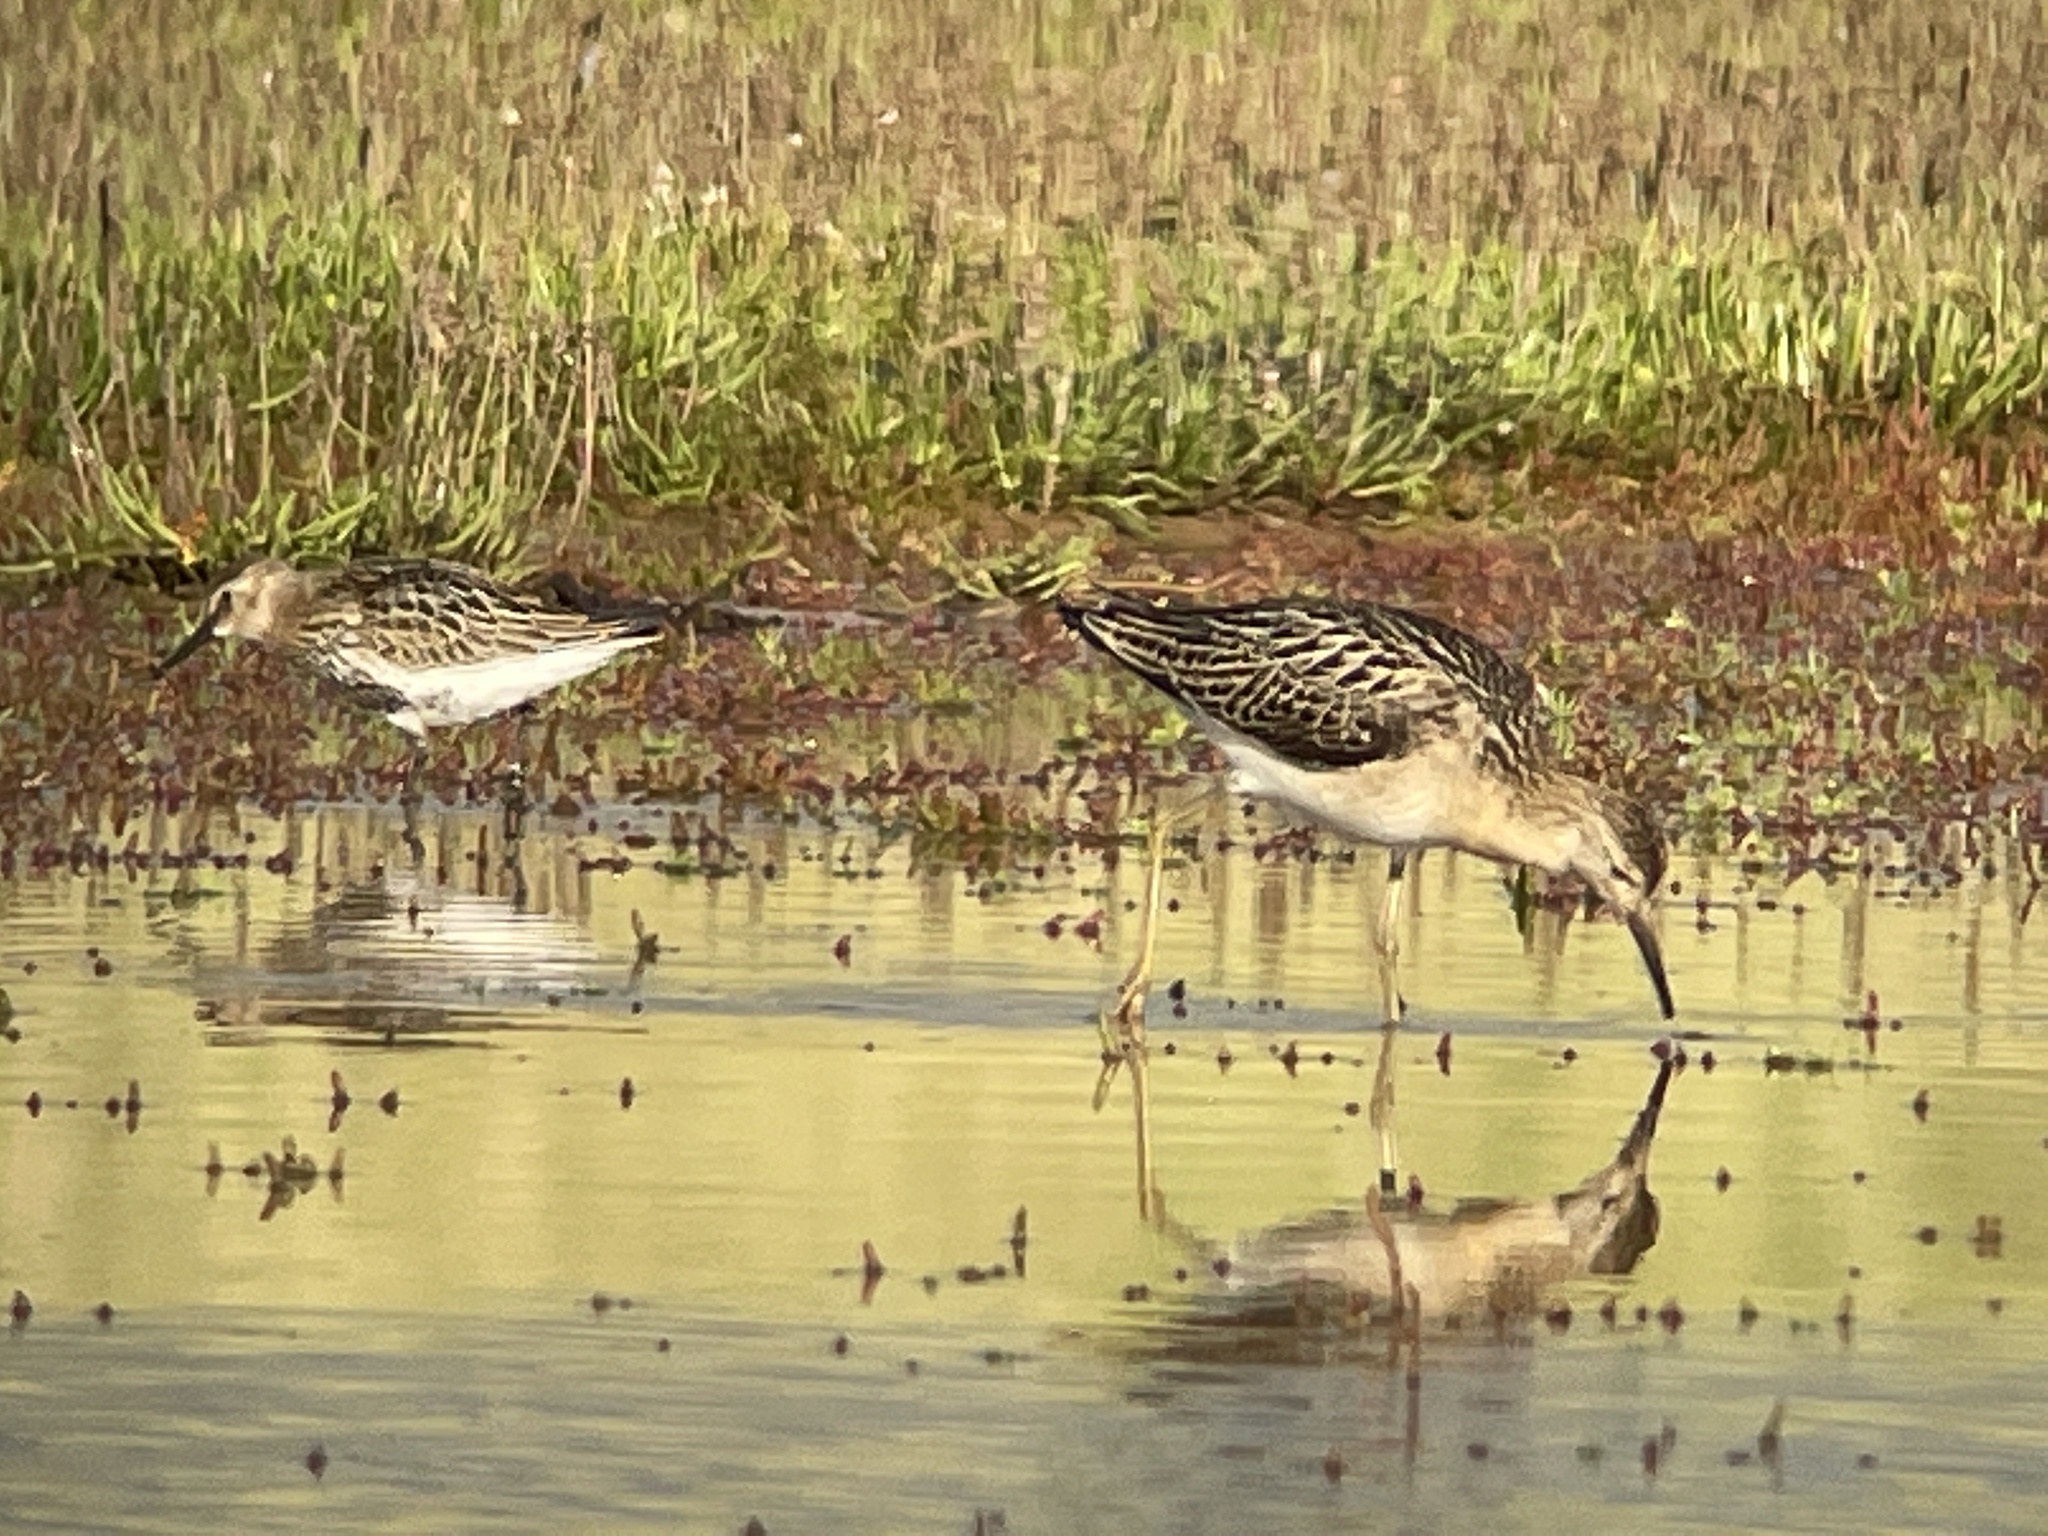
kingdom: Animalia
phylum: Chordata
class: Aves
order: Charadriiformes
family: Scolopacidae
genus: Calidris
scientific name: Calidris pugnax
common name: Ruff
